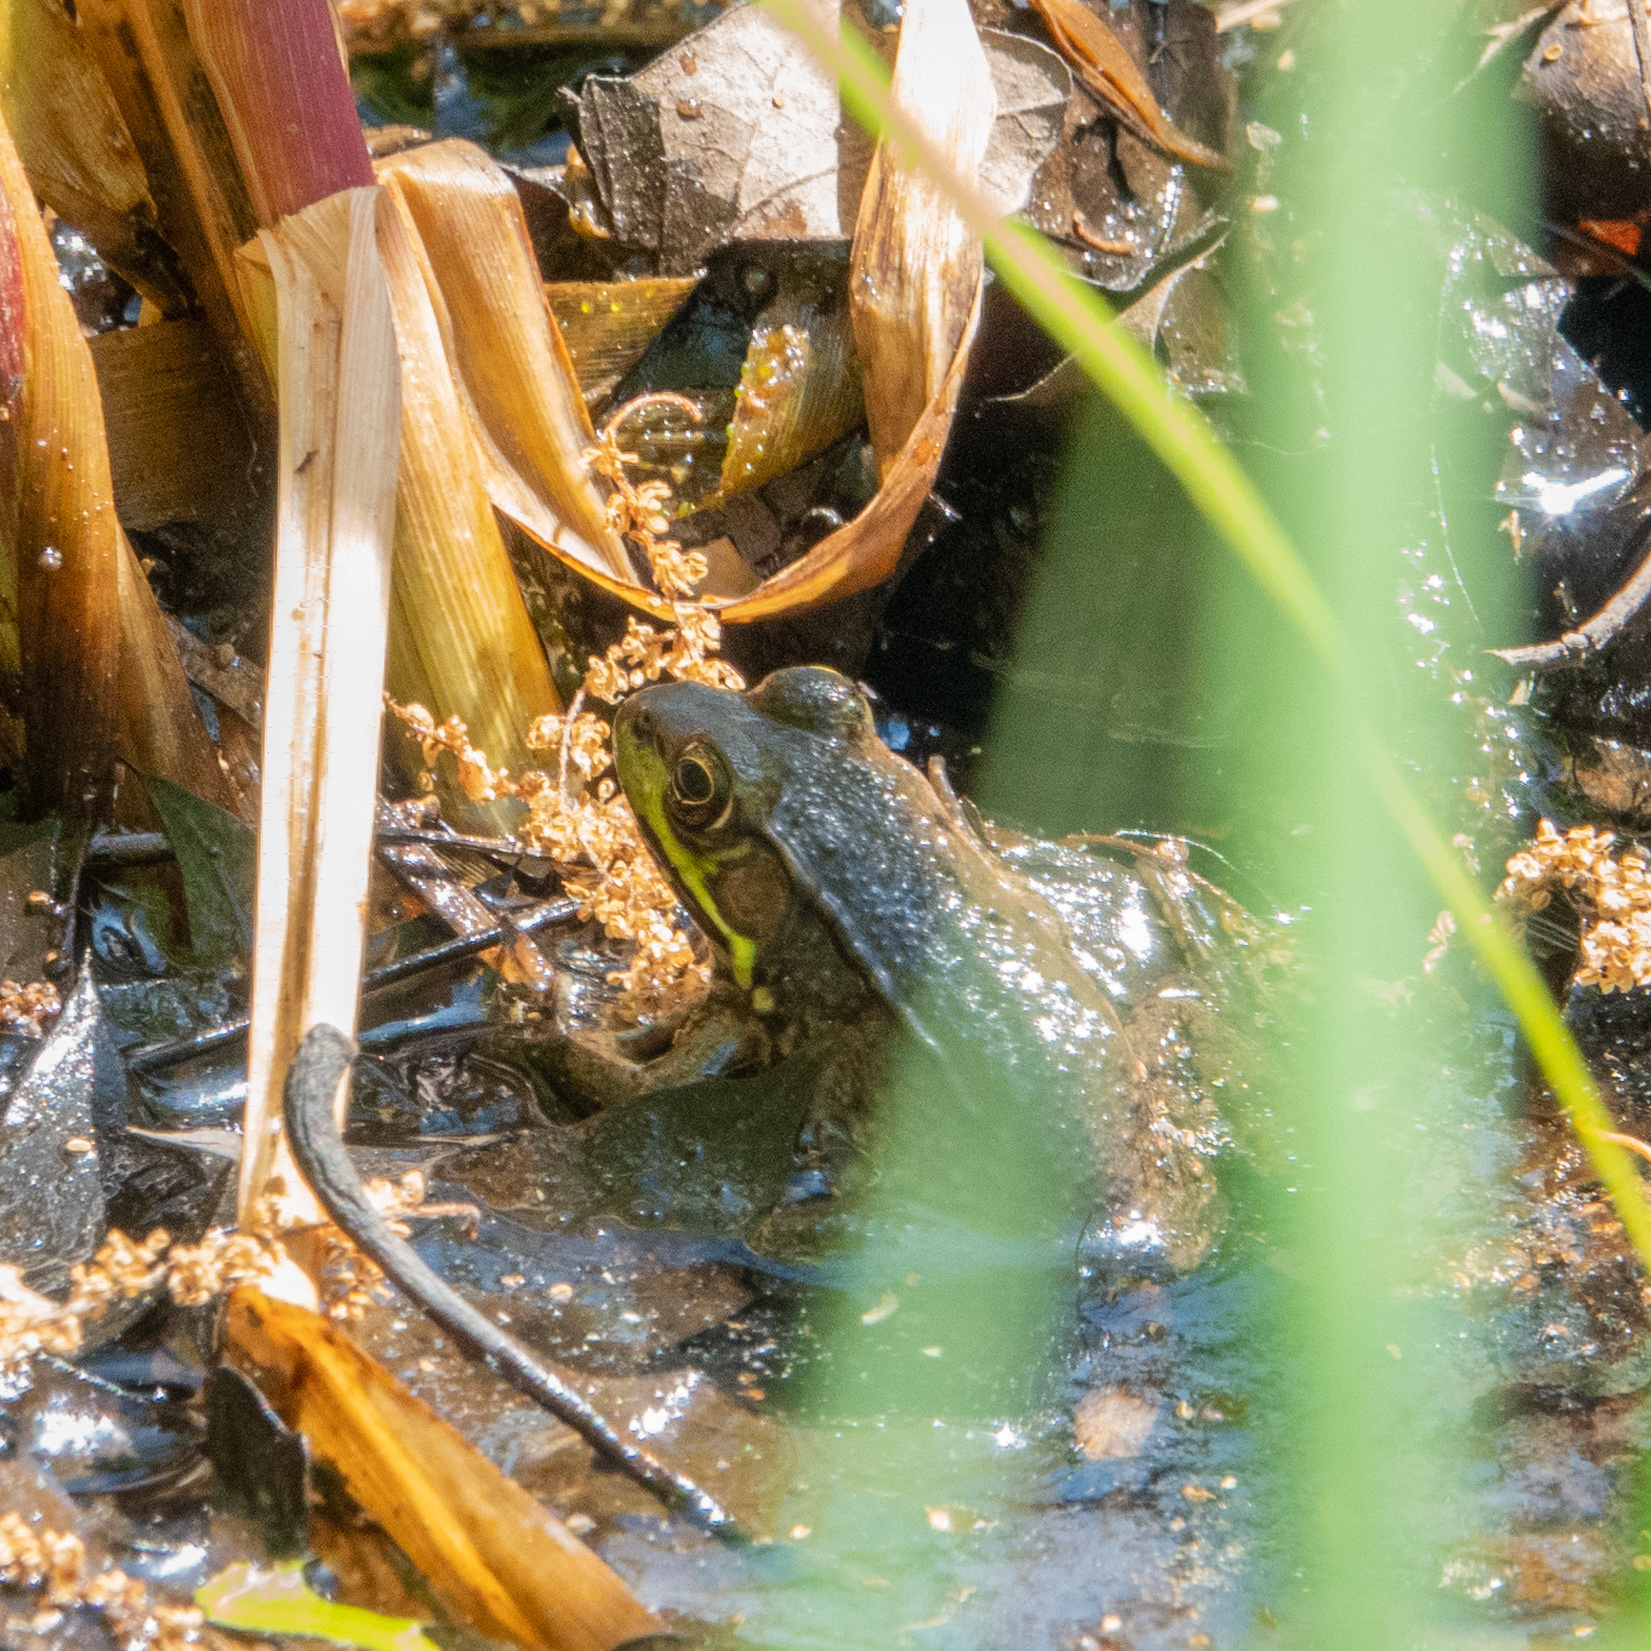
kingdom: Animalia
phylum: Chordata
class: Amphibia
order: Anura
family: Ranidae
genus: Lithobates
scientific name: Lithobates clamitans
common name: Green frog
